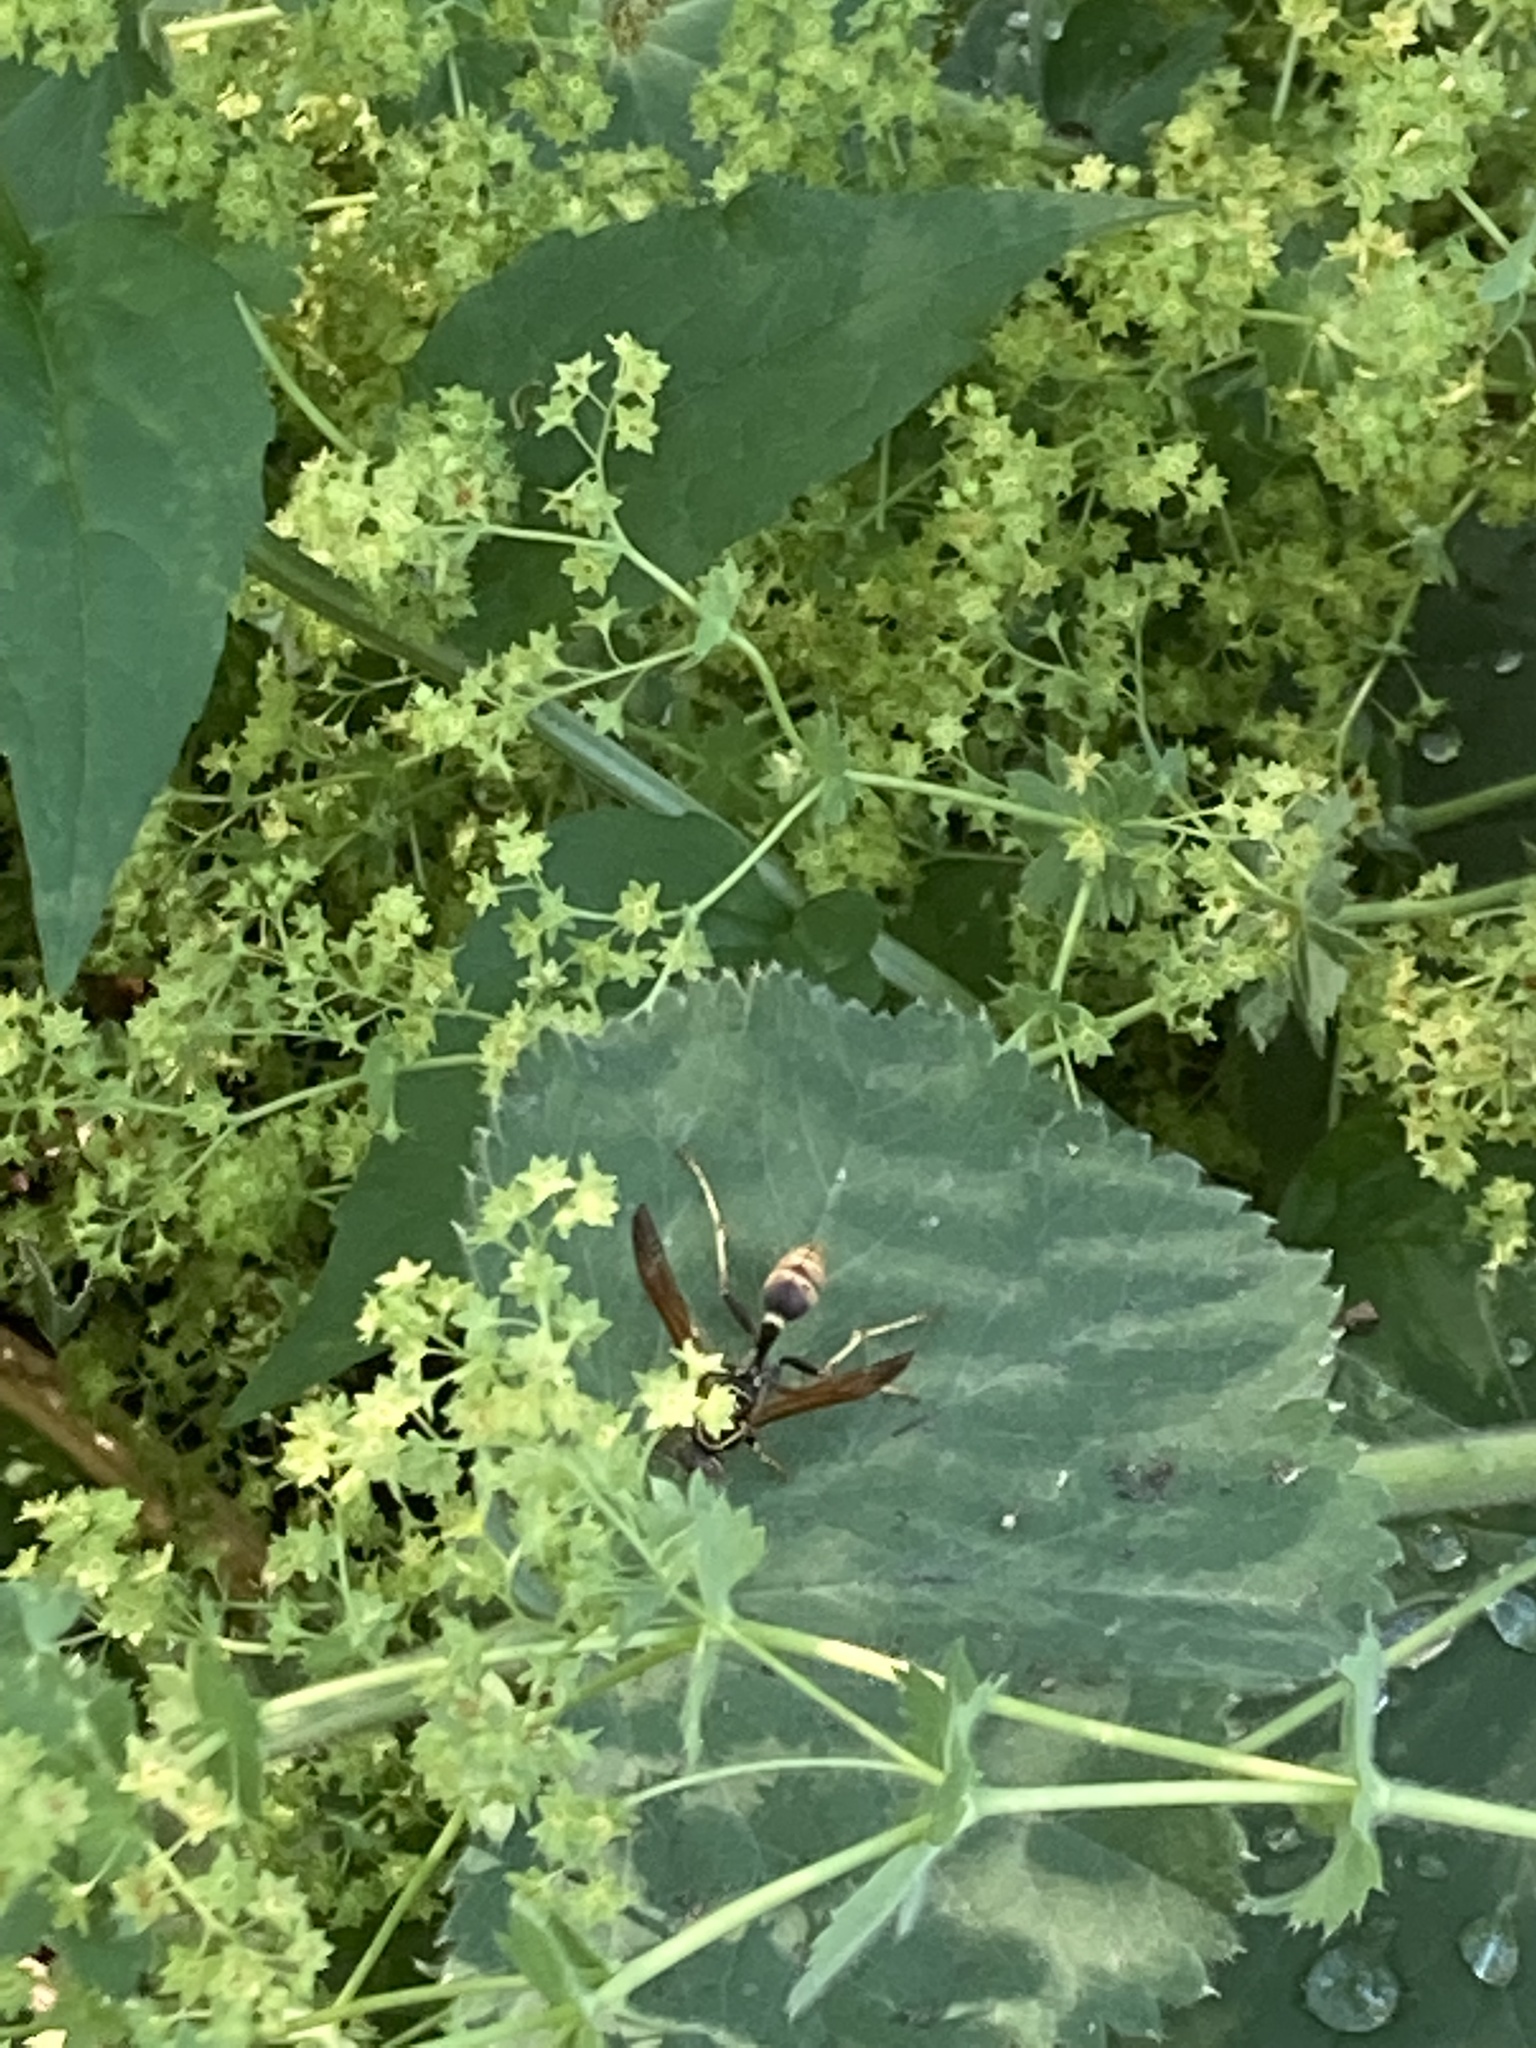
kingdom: Animalia
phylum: Arthropoda
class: Insecta
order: Hymenoptera
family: Vespidae
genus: Mischocyttarus
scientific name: Mischocyttarus flavitarsis
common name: Wasp
